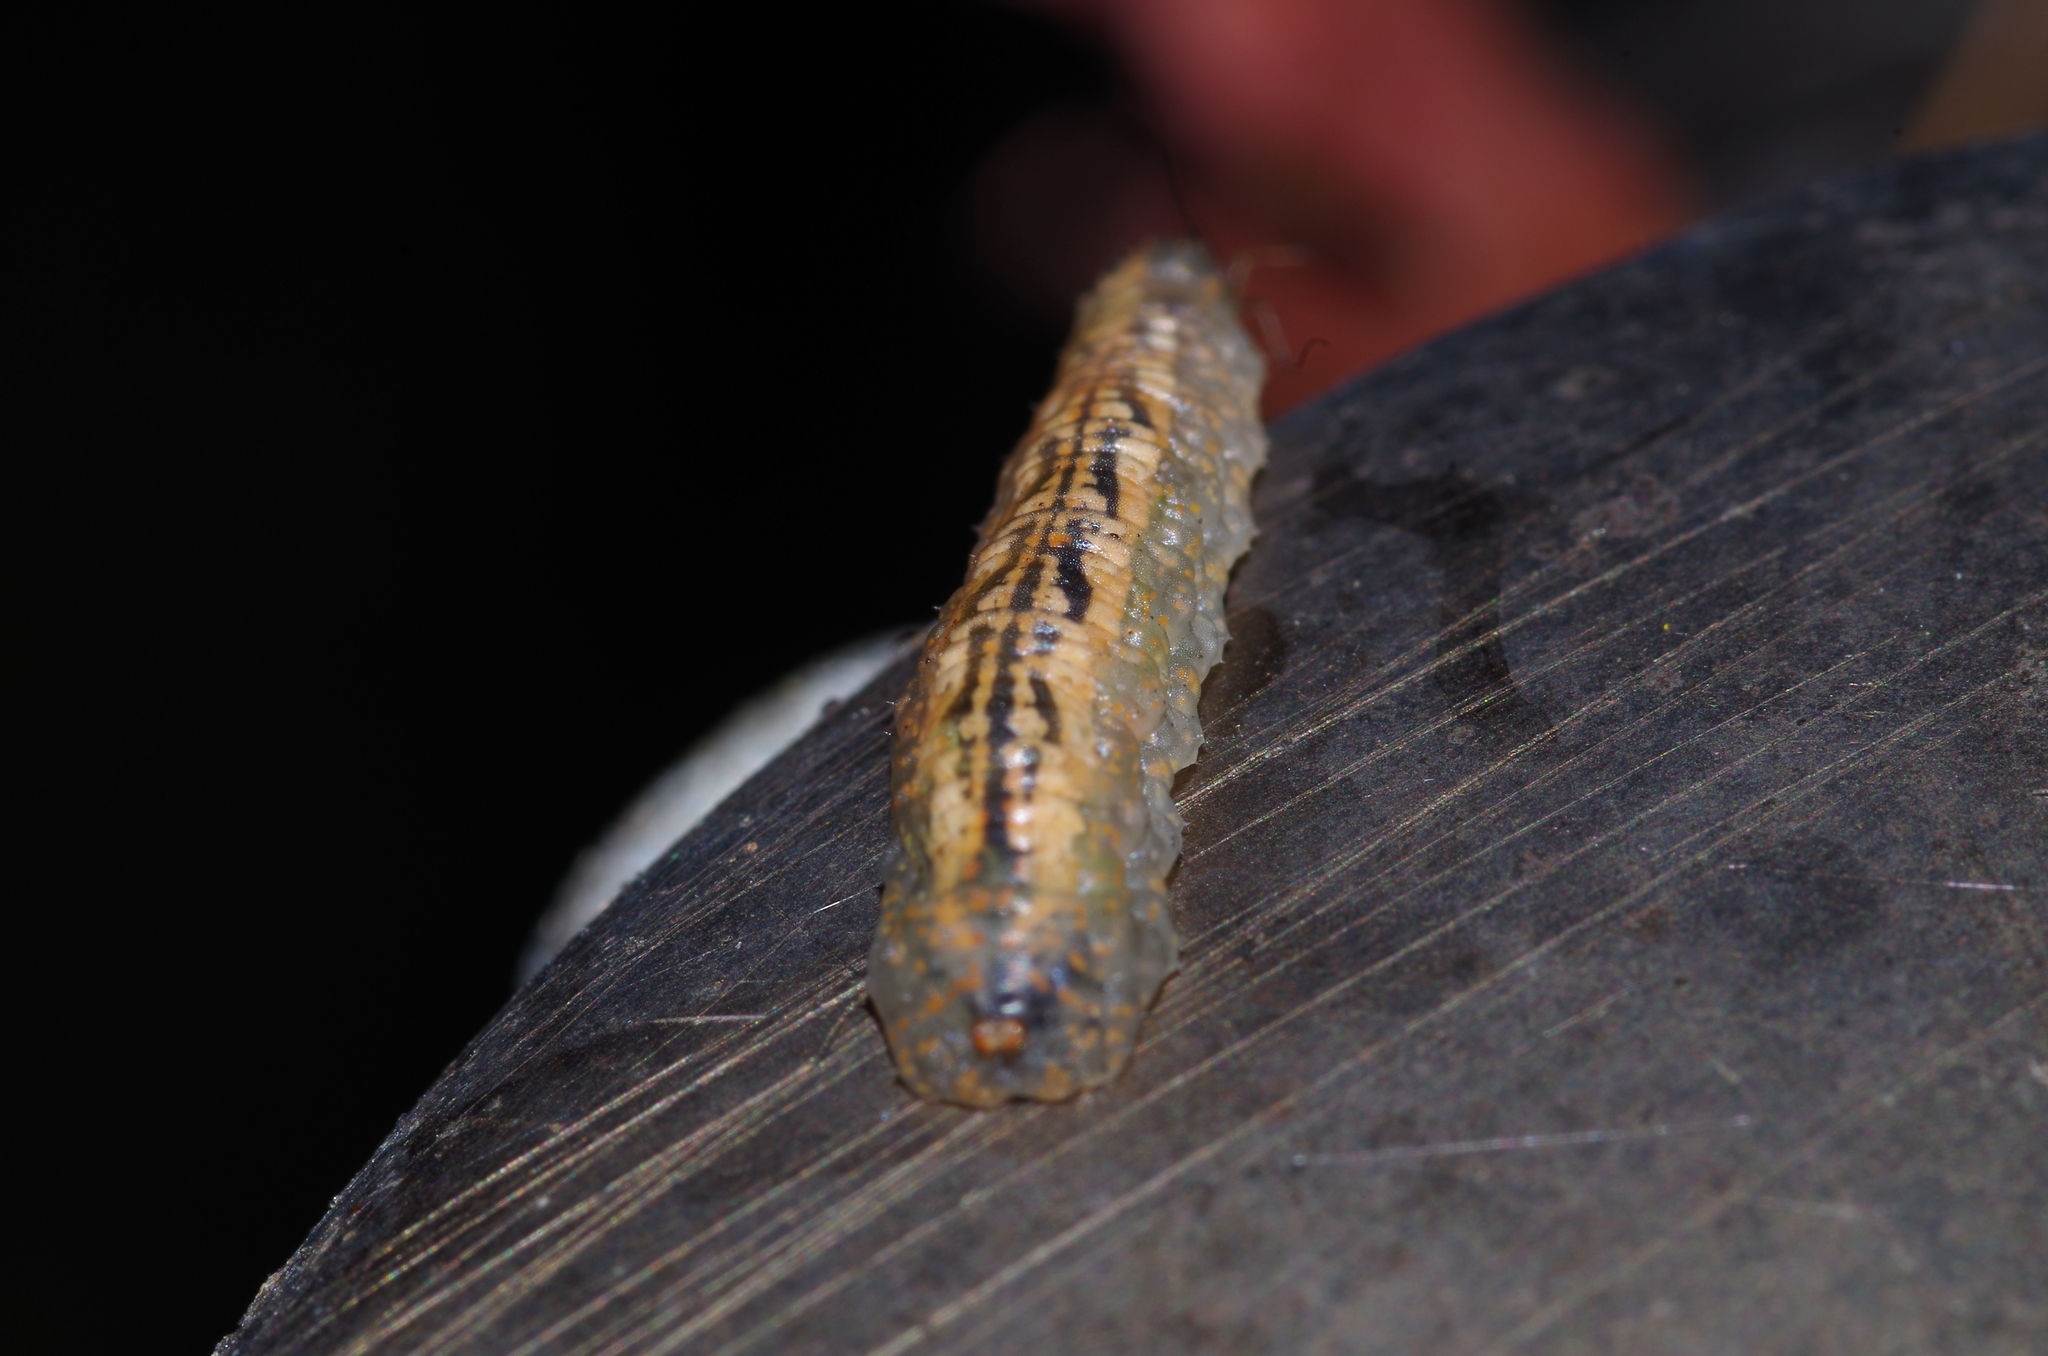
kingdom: Animalia
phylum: Arthropoda
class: Insecta
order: Diptera
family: Syrphidae
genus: Syrphus
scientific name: Syrphus
